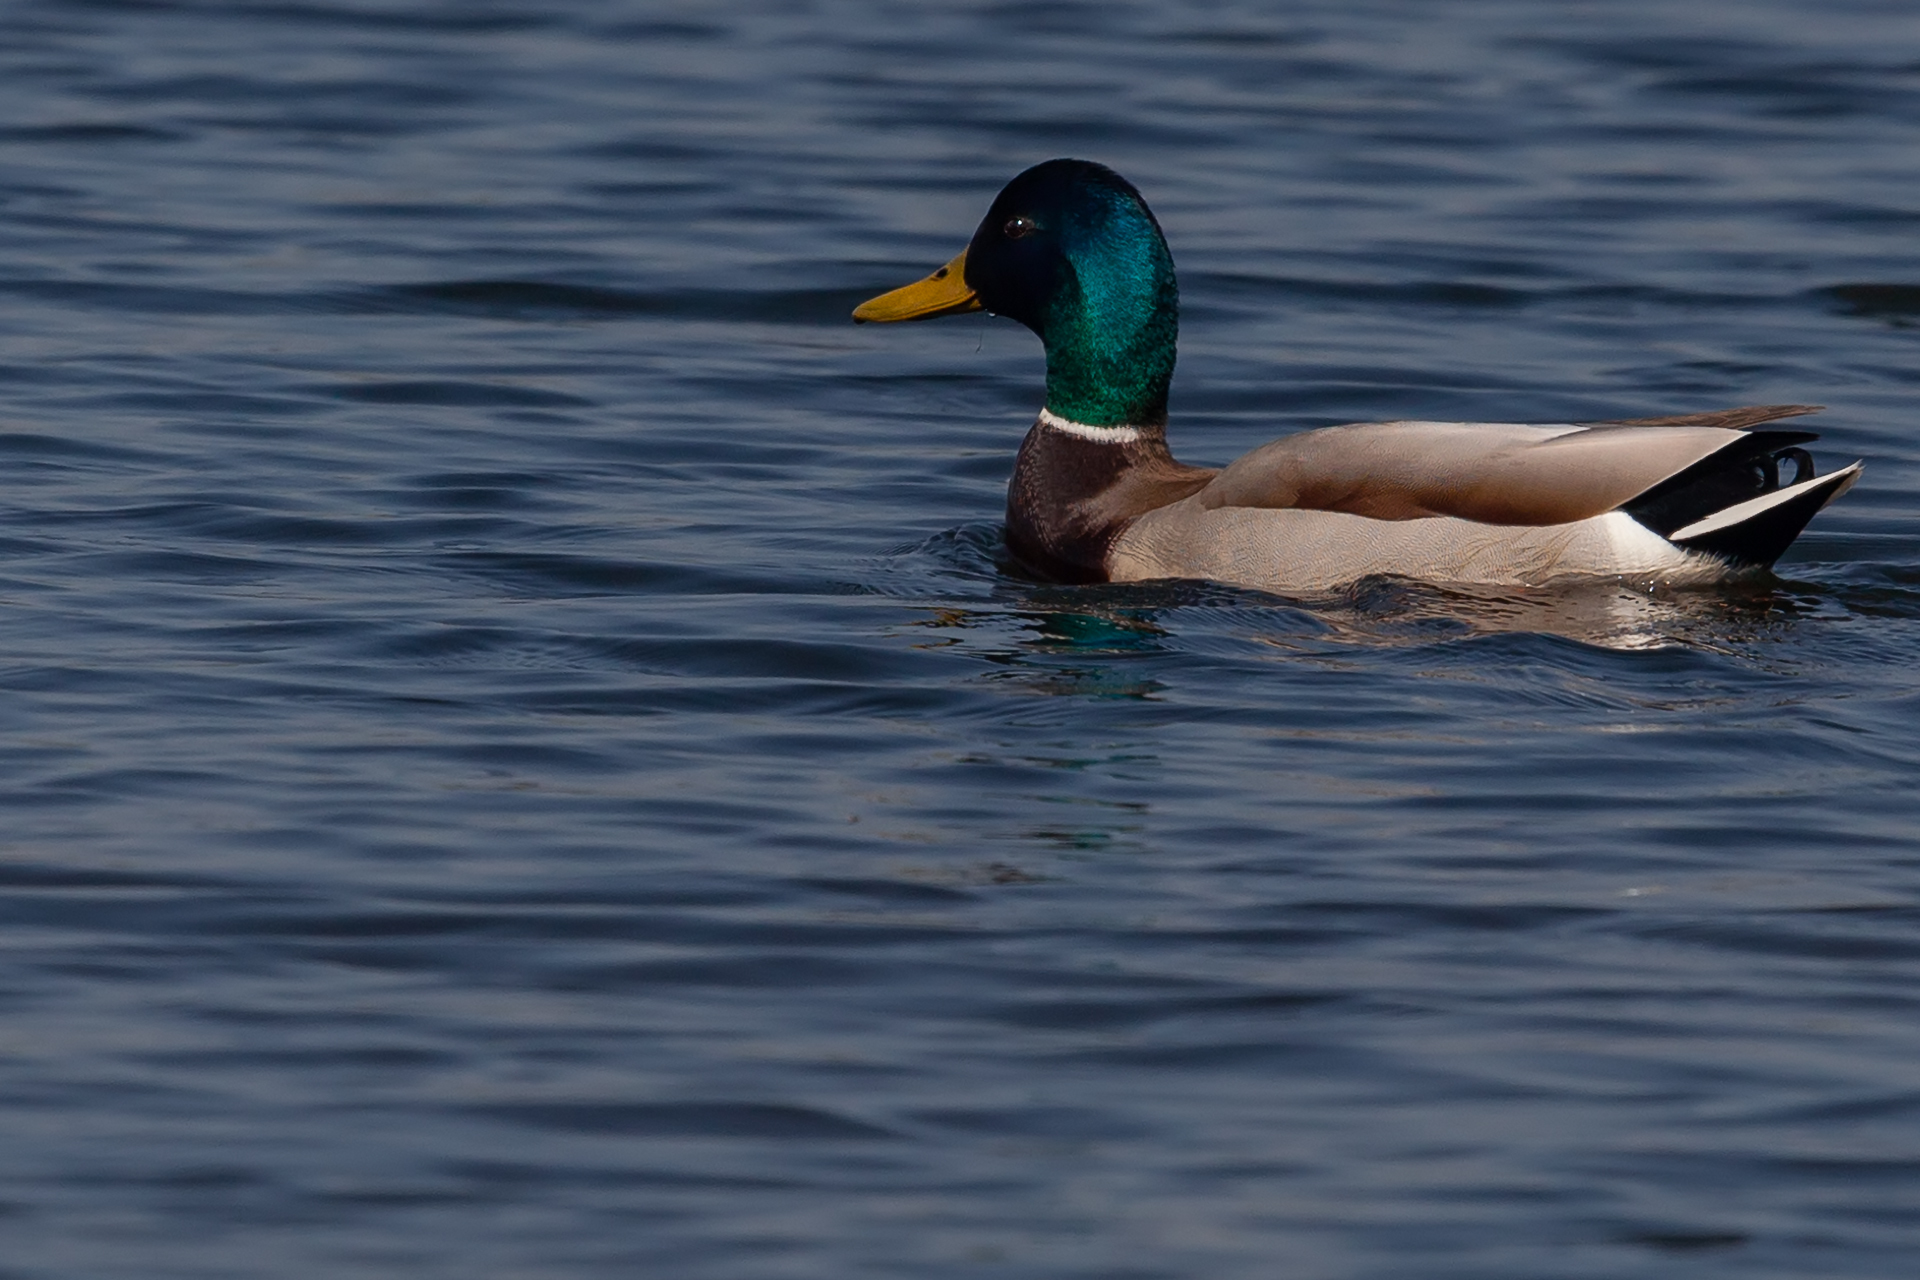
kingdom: Animalia
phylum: Chordata
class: Aves
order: Anseriformes
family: Anatidae
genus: Anas
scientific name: Anas platyrhynchos
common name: Mallard
